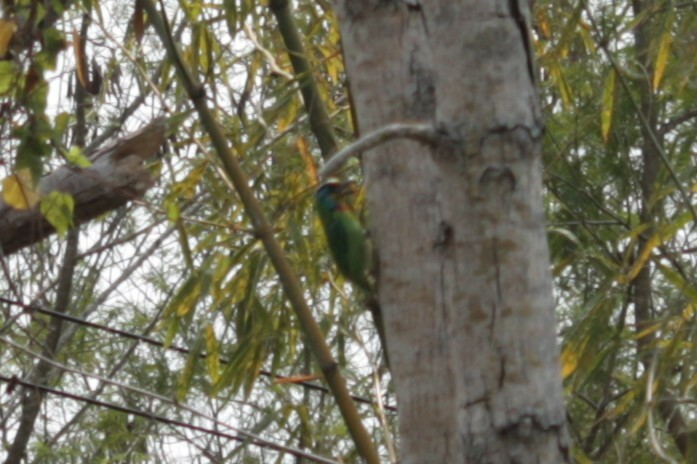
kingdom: Animalia
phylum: Chordata
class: Aves
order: Piciformes
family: Megalaimidae
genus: Psilopogon
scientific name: Psilopogon nuchalis
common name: Taiwan barbet
